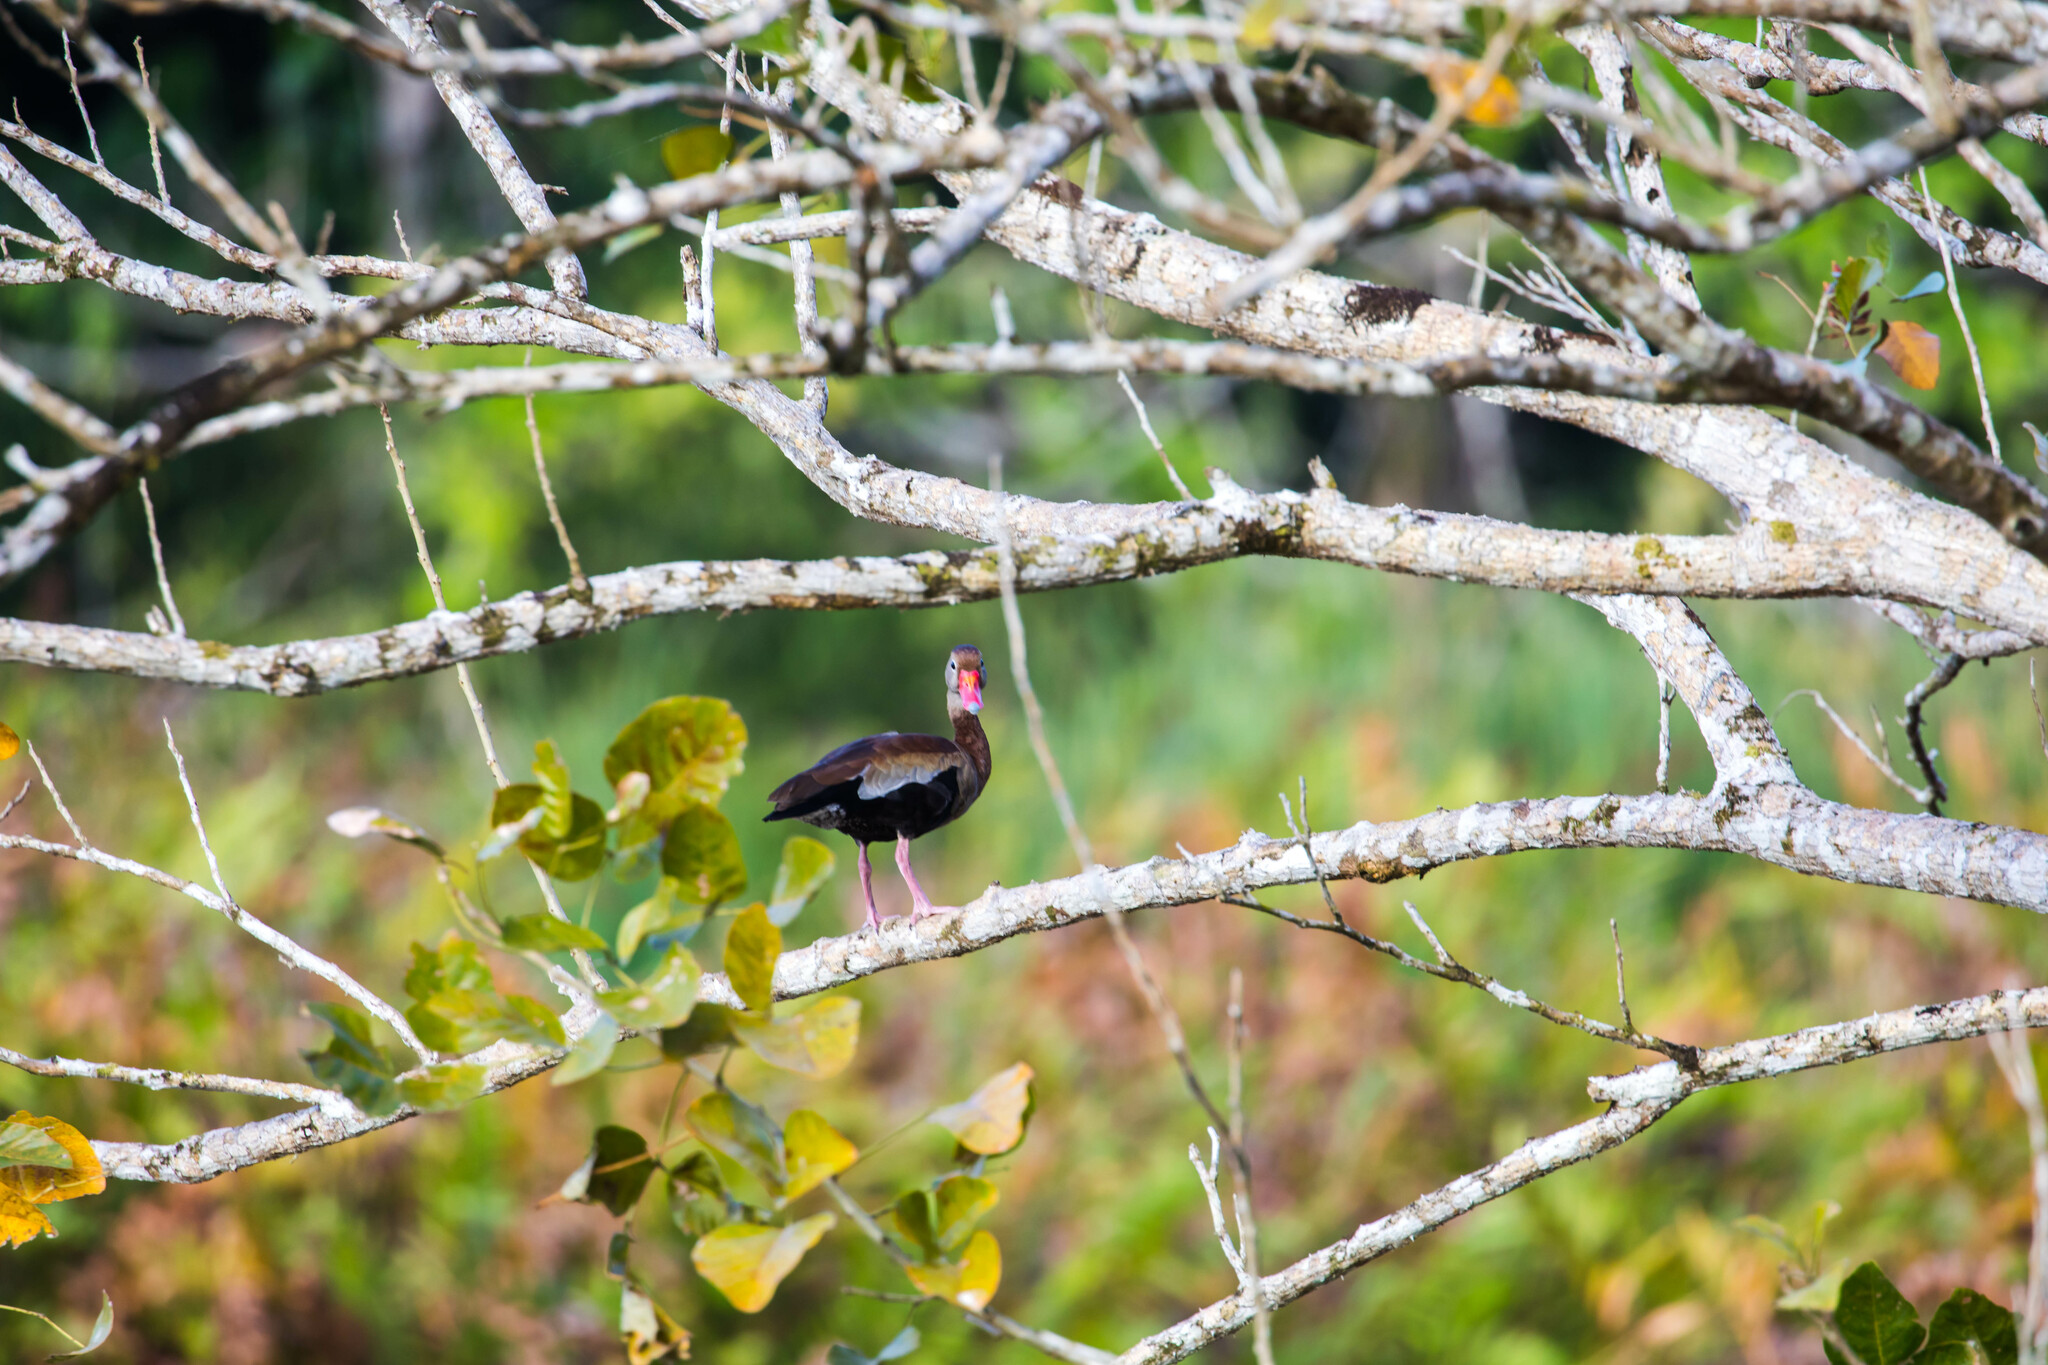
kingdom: Animalia
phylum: Chordata
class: Aves
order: Anseriformes
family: Anatidae
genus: Dendrocygna
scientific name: Dendrocygna autumnalis
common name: Black-bellied whistling duck
